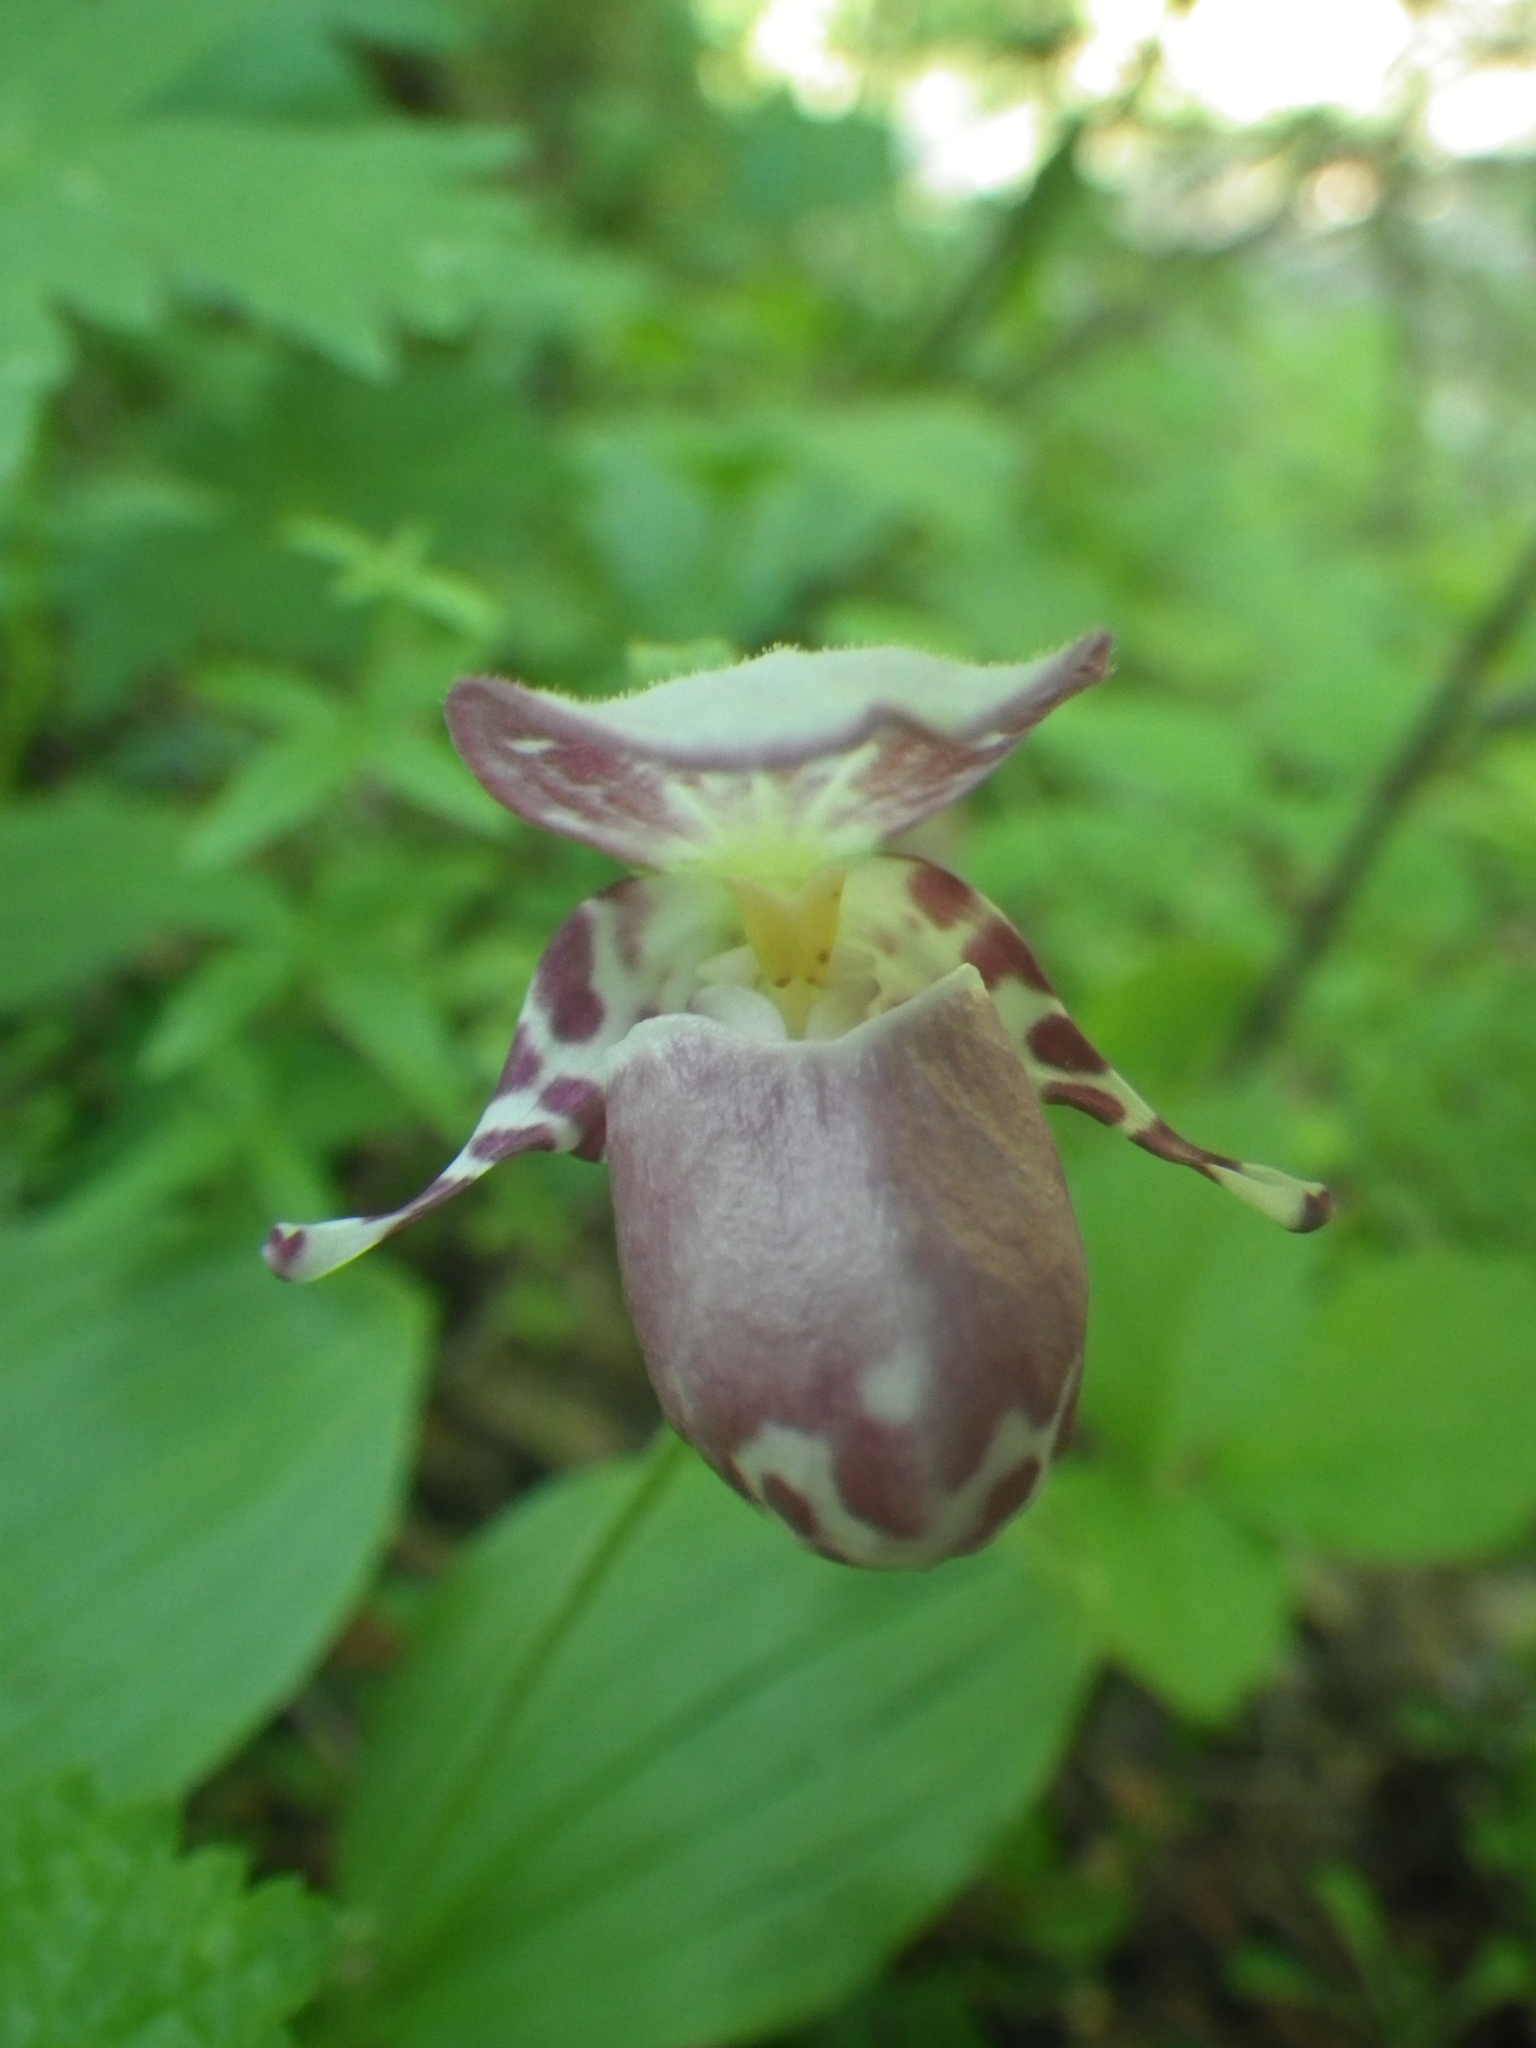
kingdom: Plantae
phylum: Tracheophyta
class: Liliopsida
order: Asparagales
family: Orchidaceae
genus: Cypripedium
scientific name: Cypripedium guttatum
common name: Pink lady slipper
